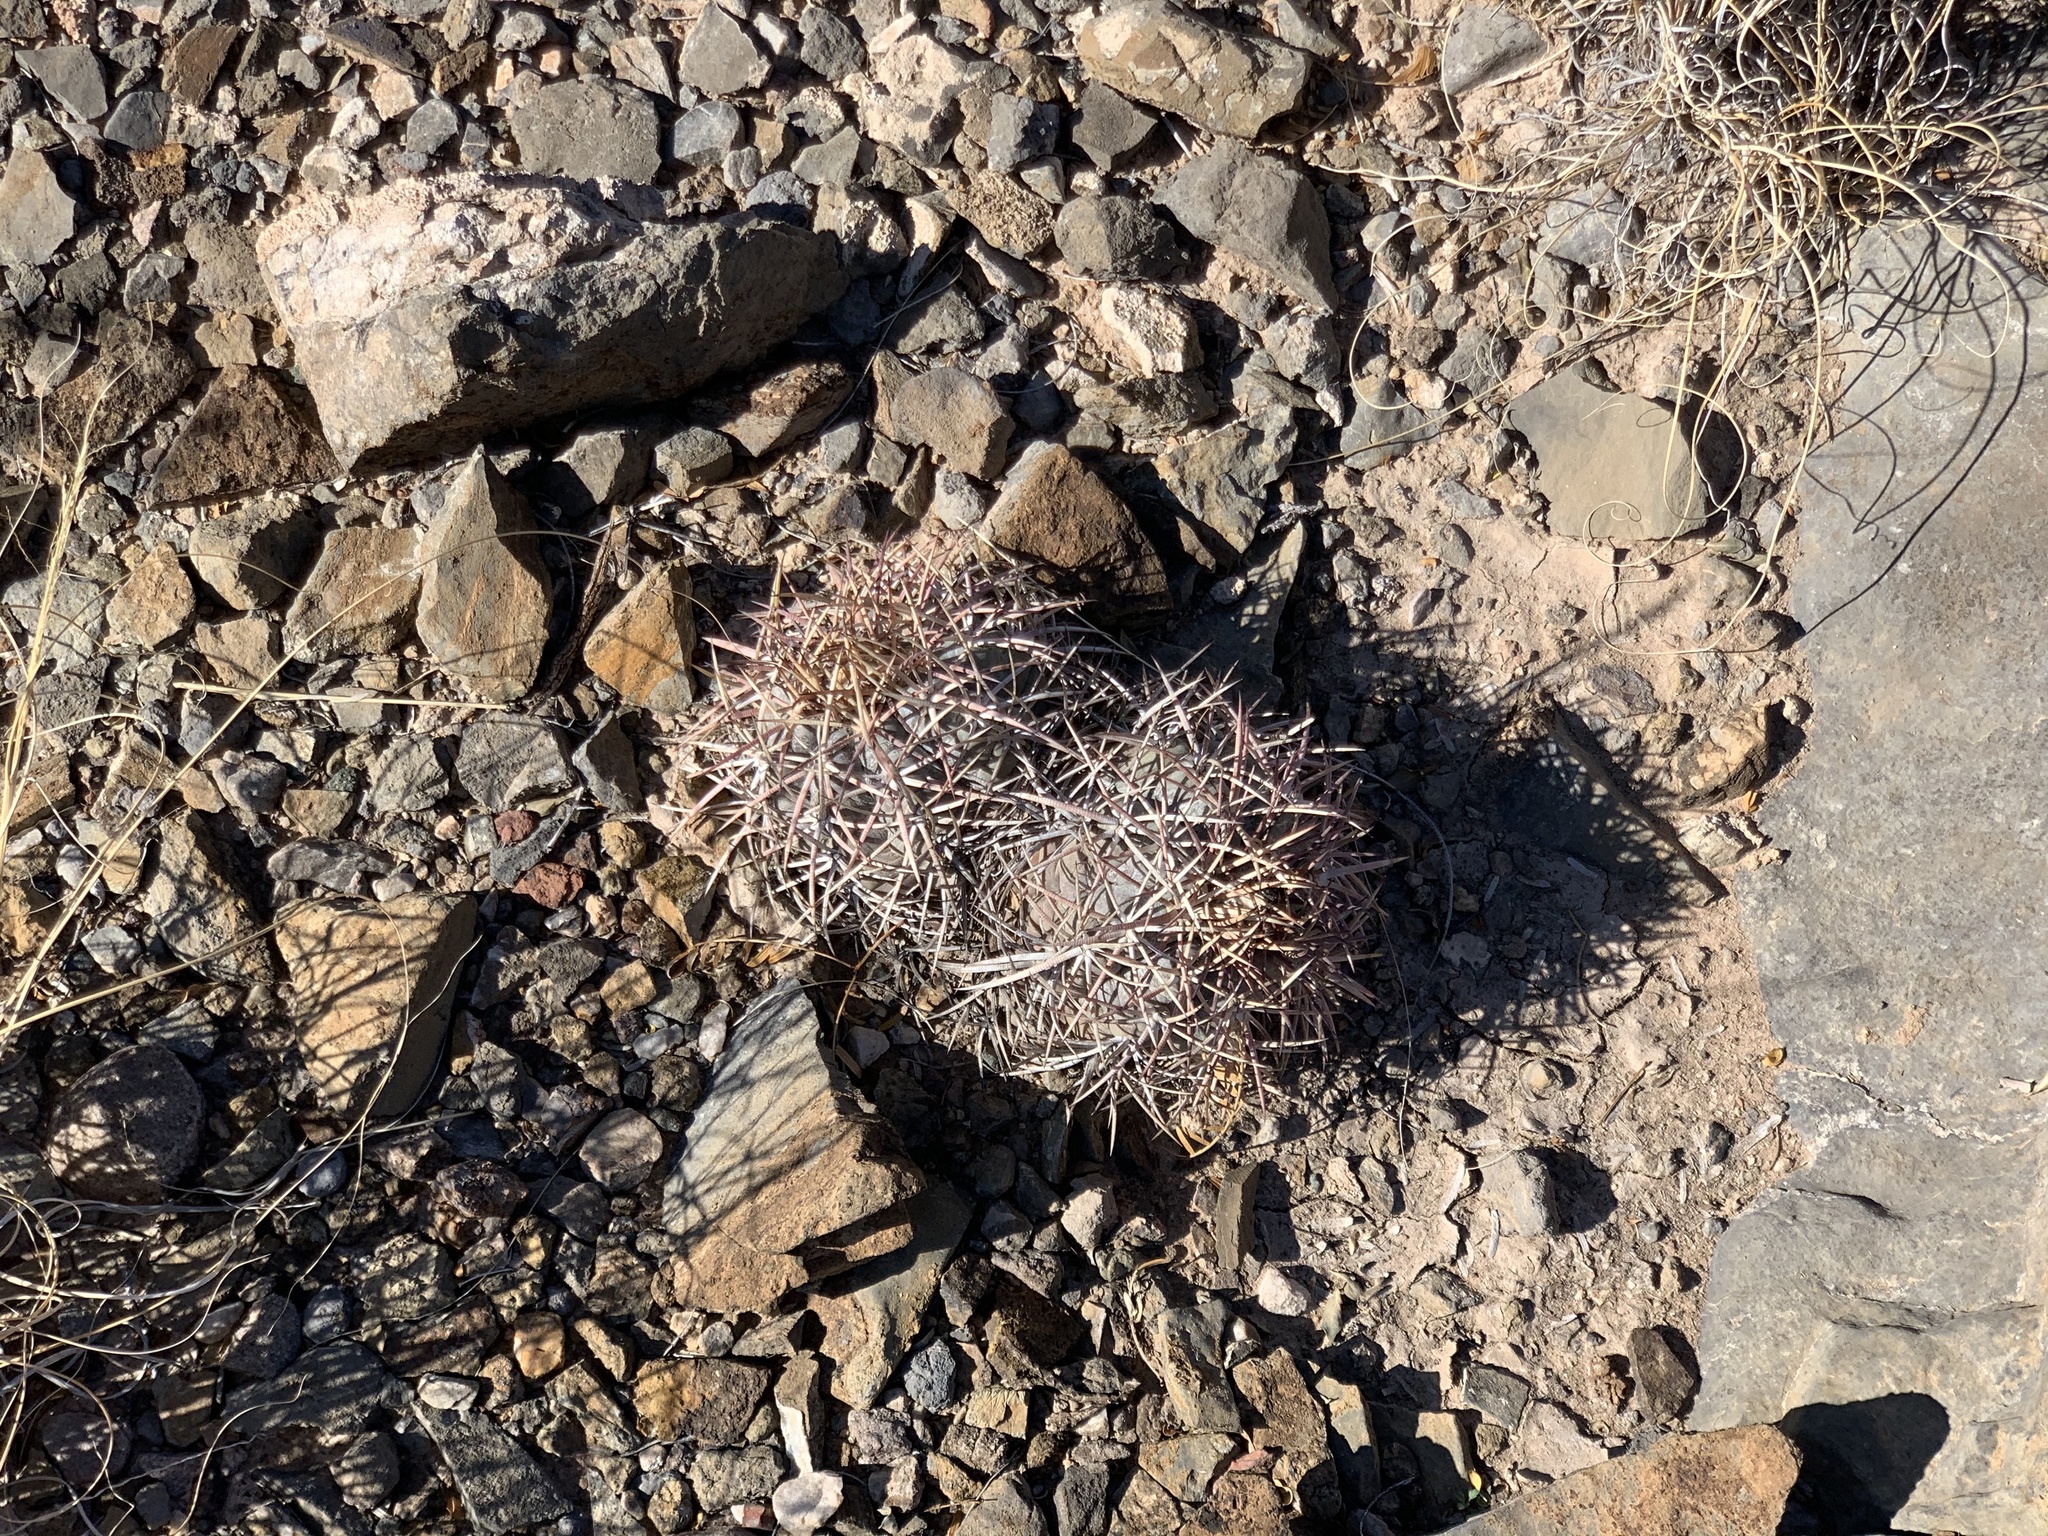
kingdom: Plantae
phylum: Tracheophyta
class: Magnoliopsida
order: Caryophyllales
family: Cactaceae
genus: Echinocactus
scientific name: Echinocactus horizonthalonius
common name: Devilshead
